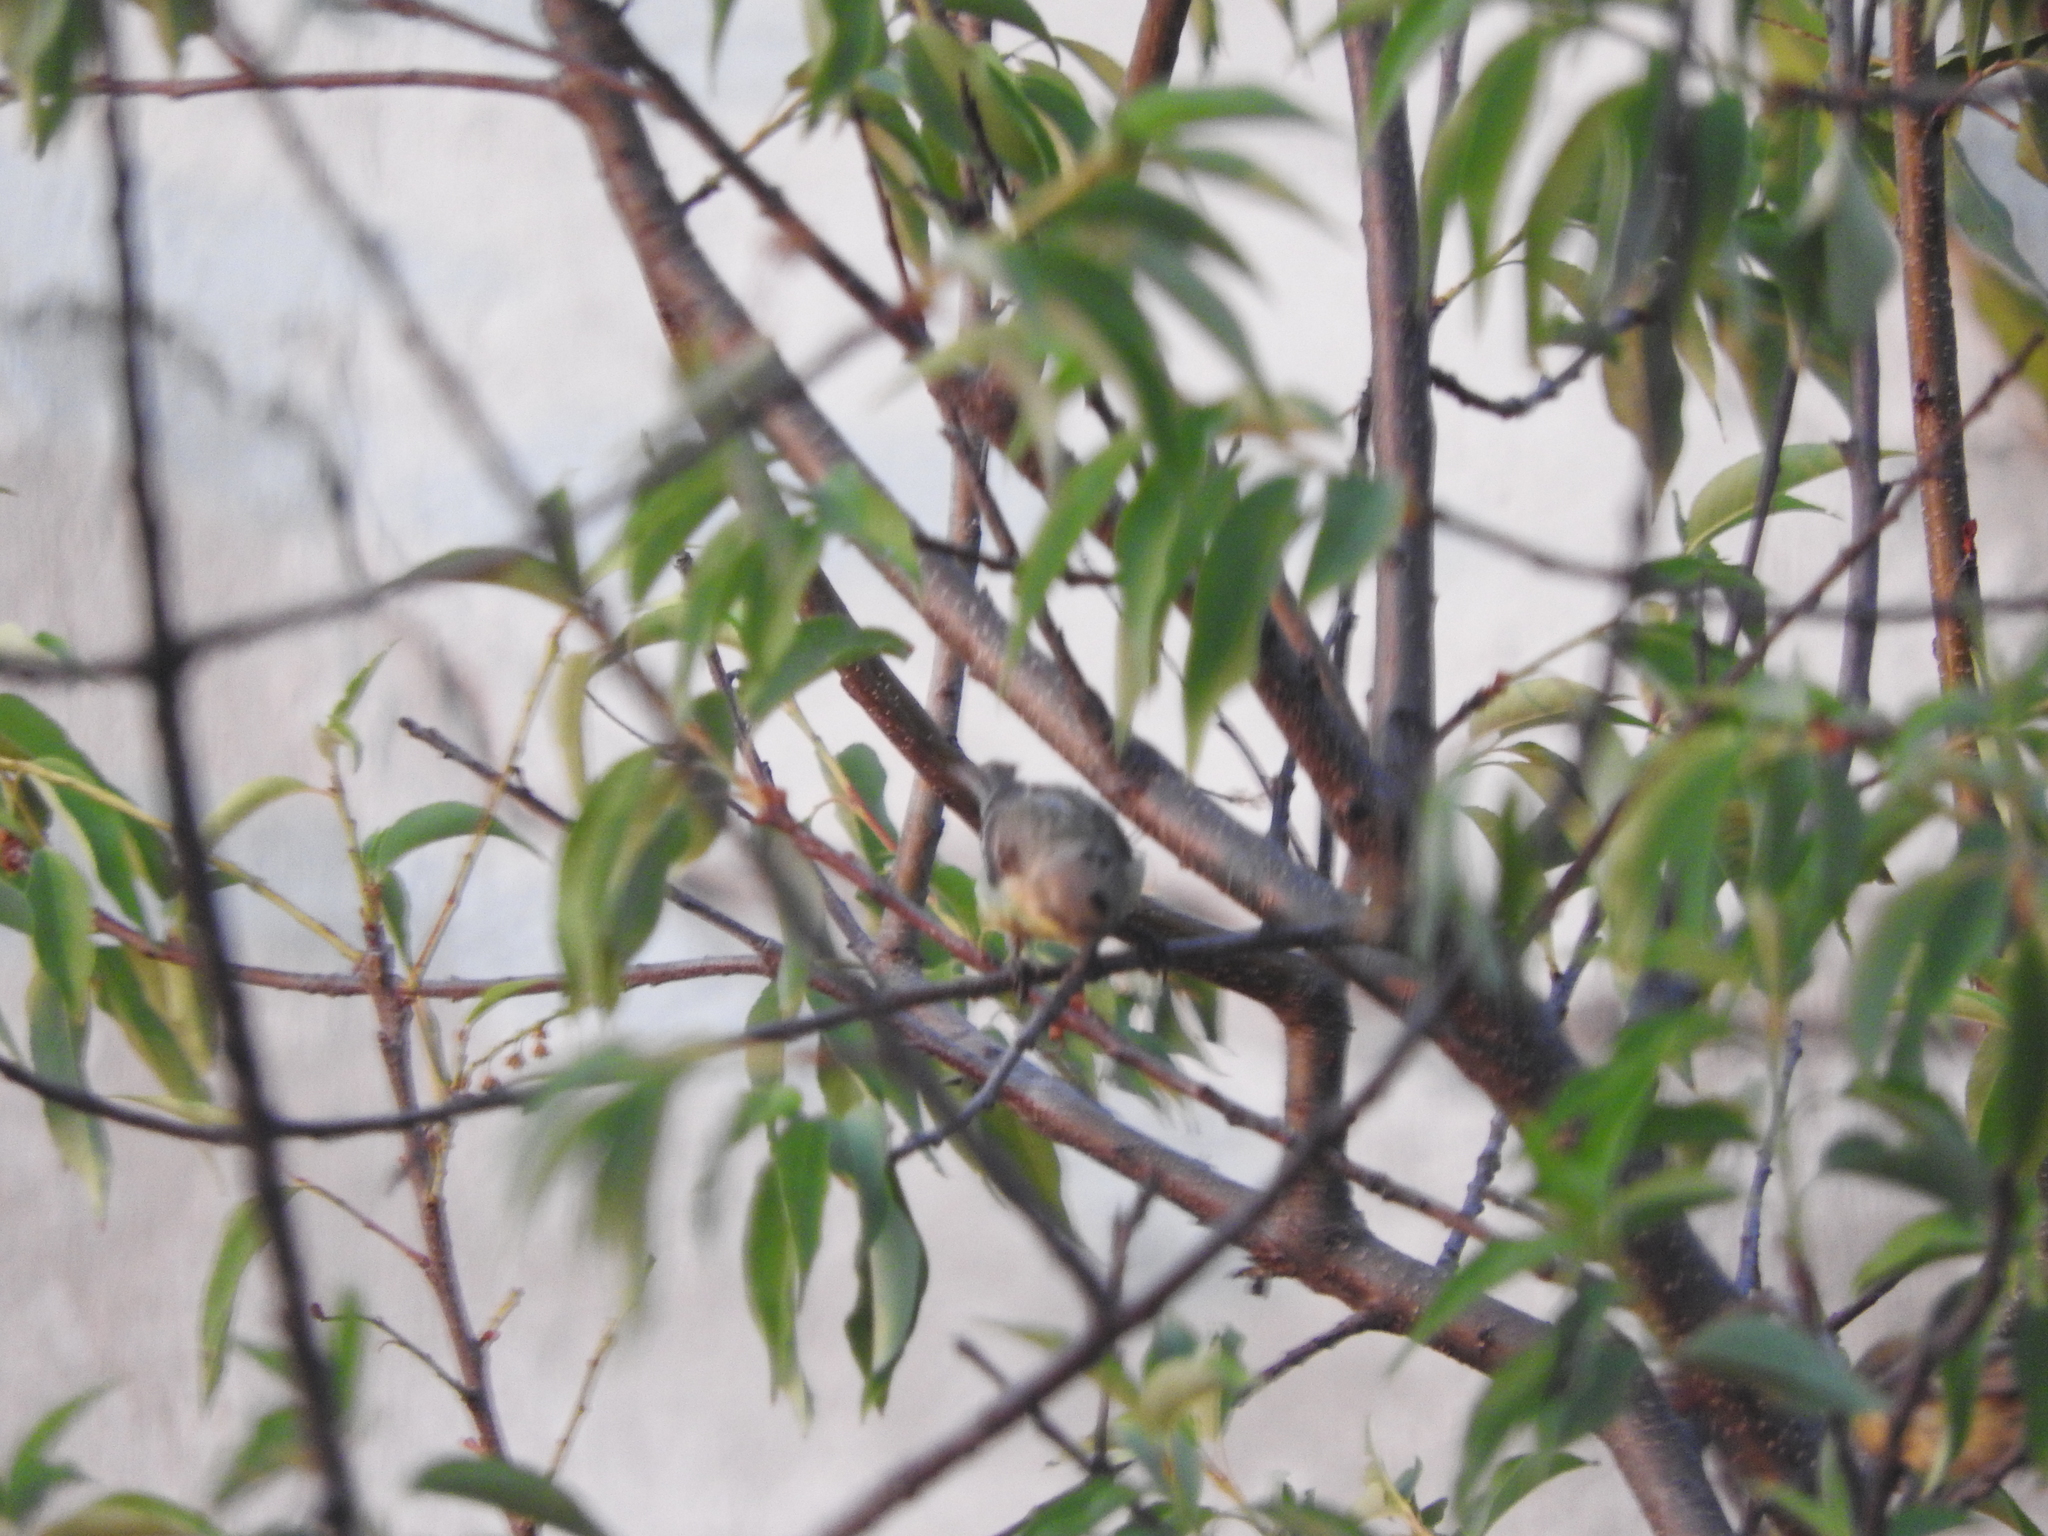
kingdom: Animalia
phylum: Chordata
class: Aves
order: Passeriformes
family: Fringillidae
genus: Spinus
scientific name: Spinus psaltria
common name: Lesser goldfinch
